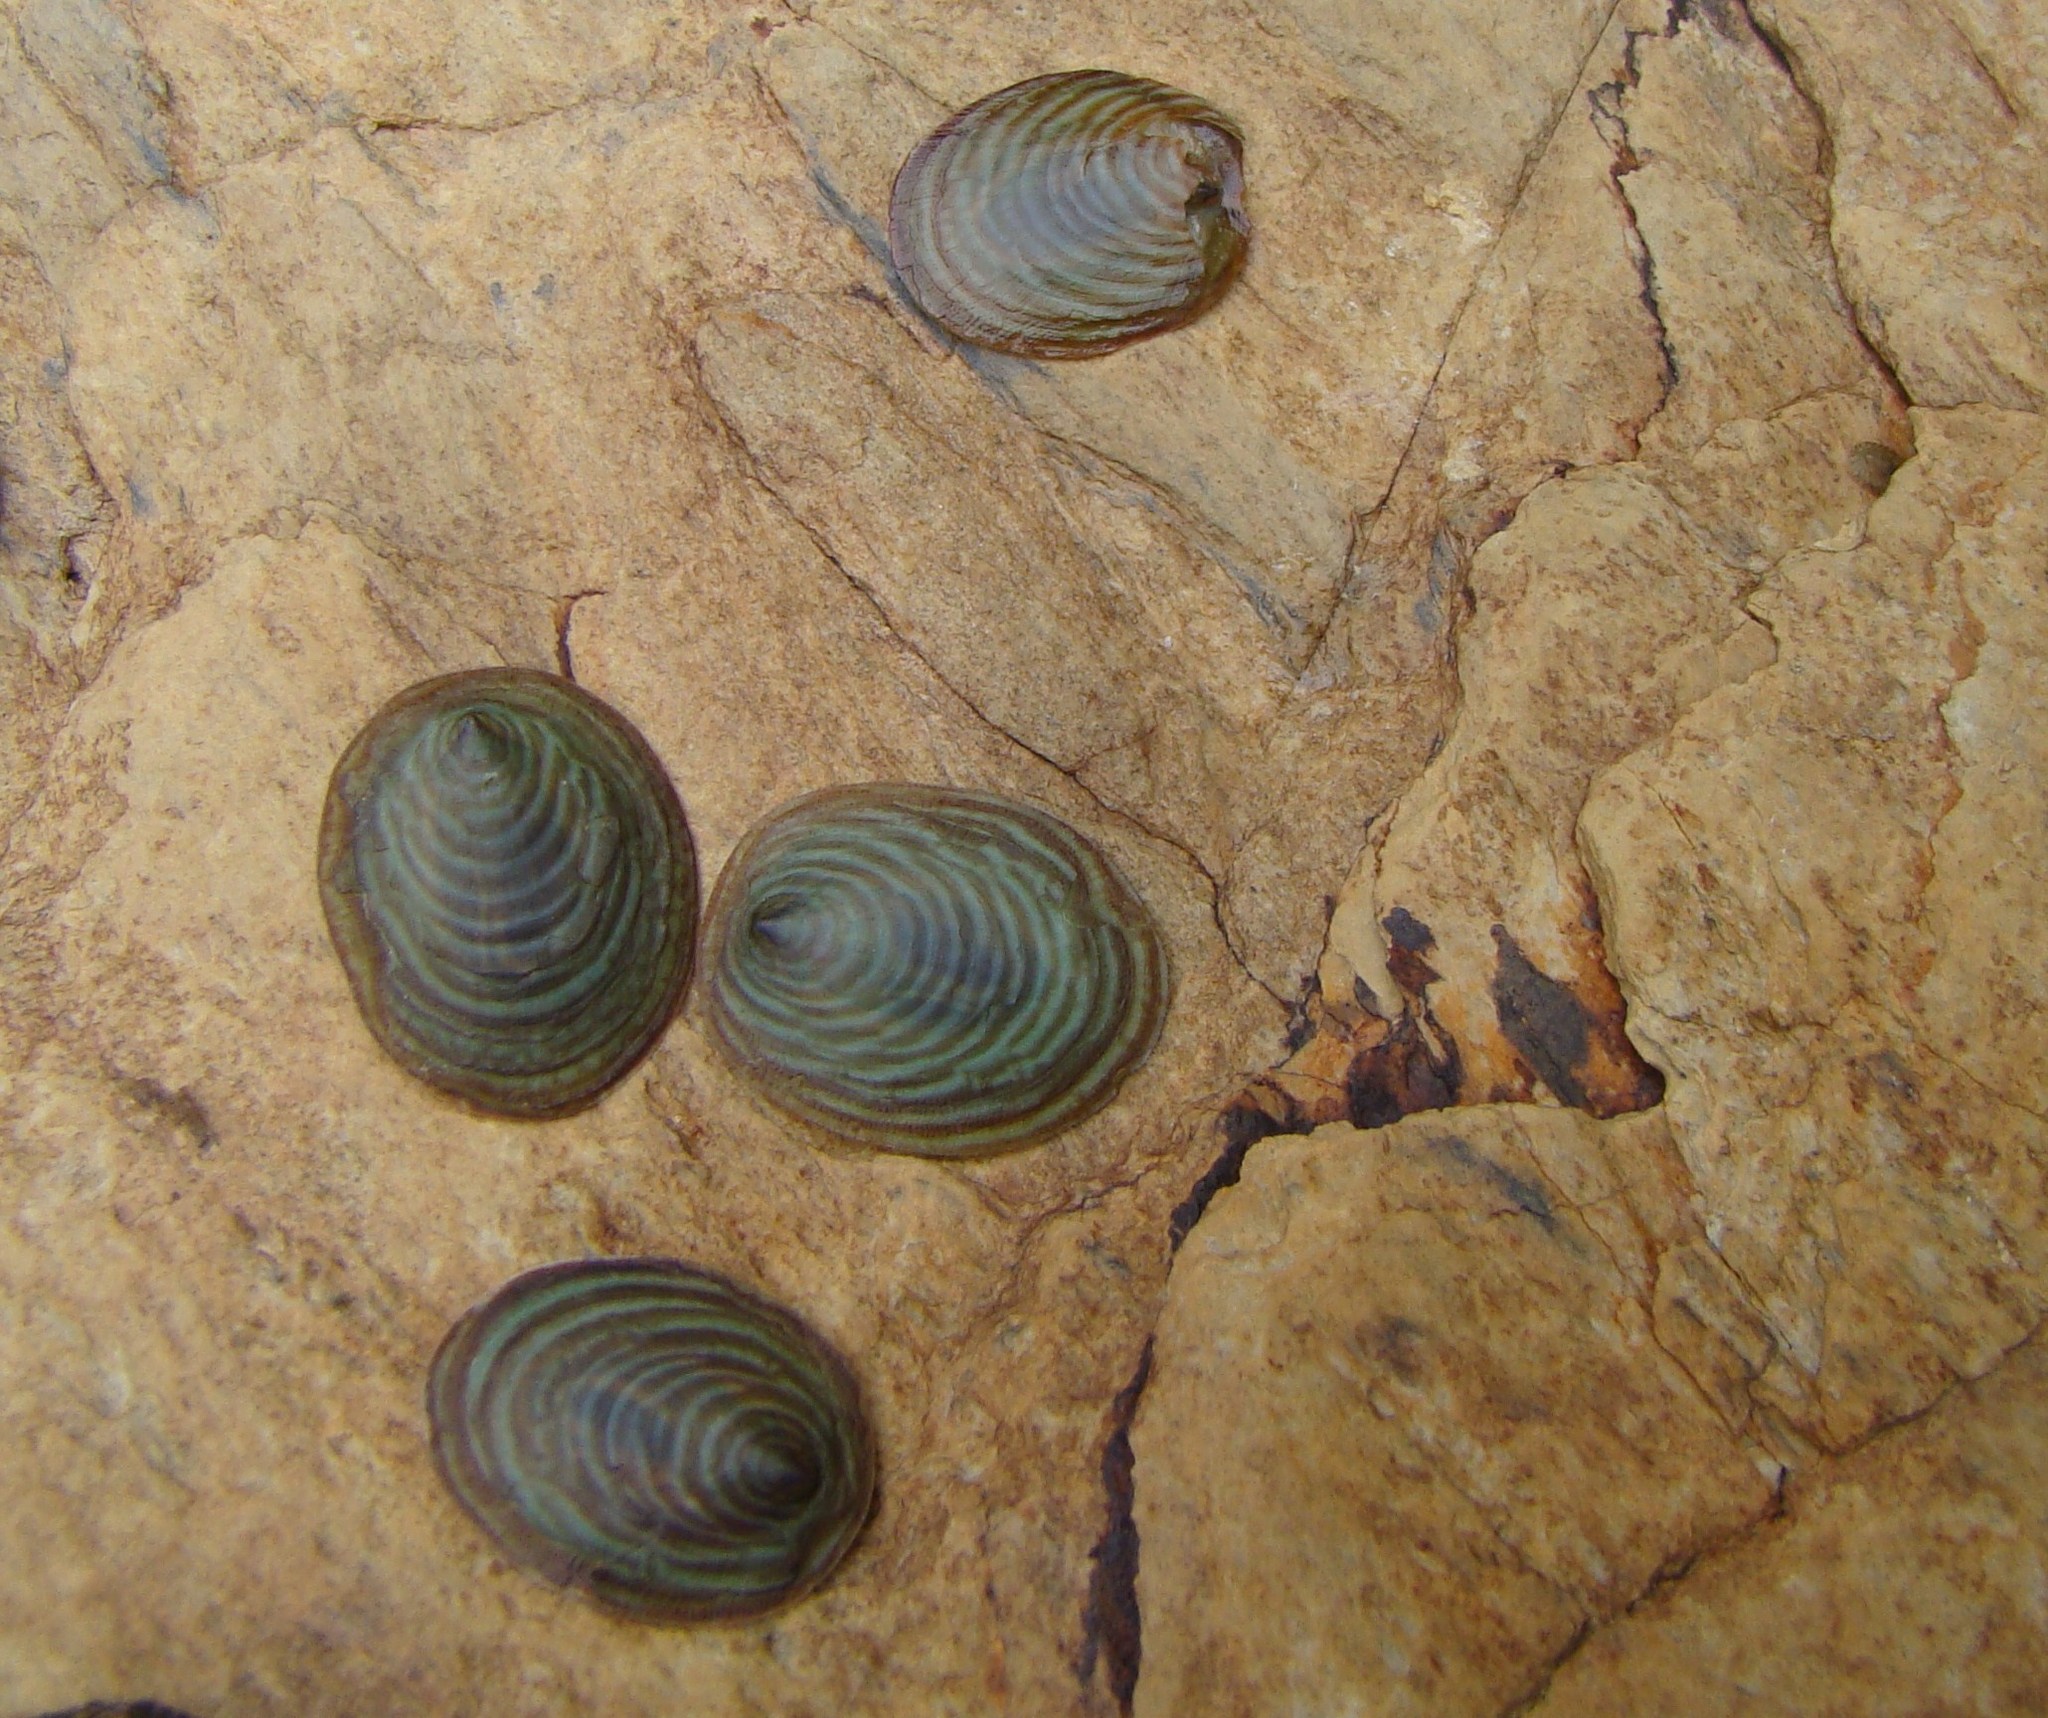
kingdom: Animalia
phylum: Mollusca
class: Gastropoda
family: Lottiidae
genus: Atalacmea
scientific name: Atalacmea fragilis
